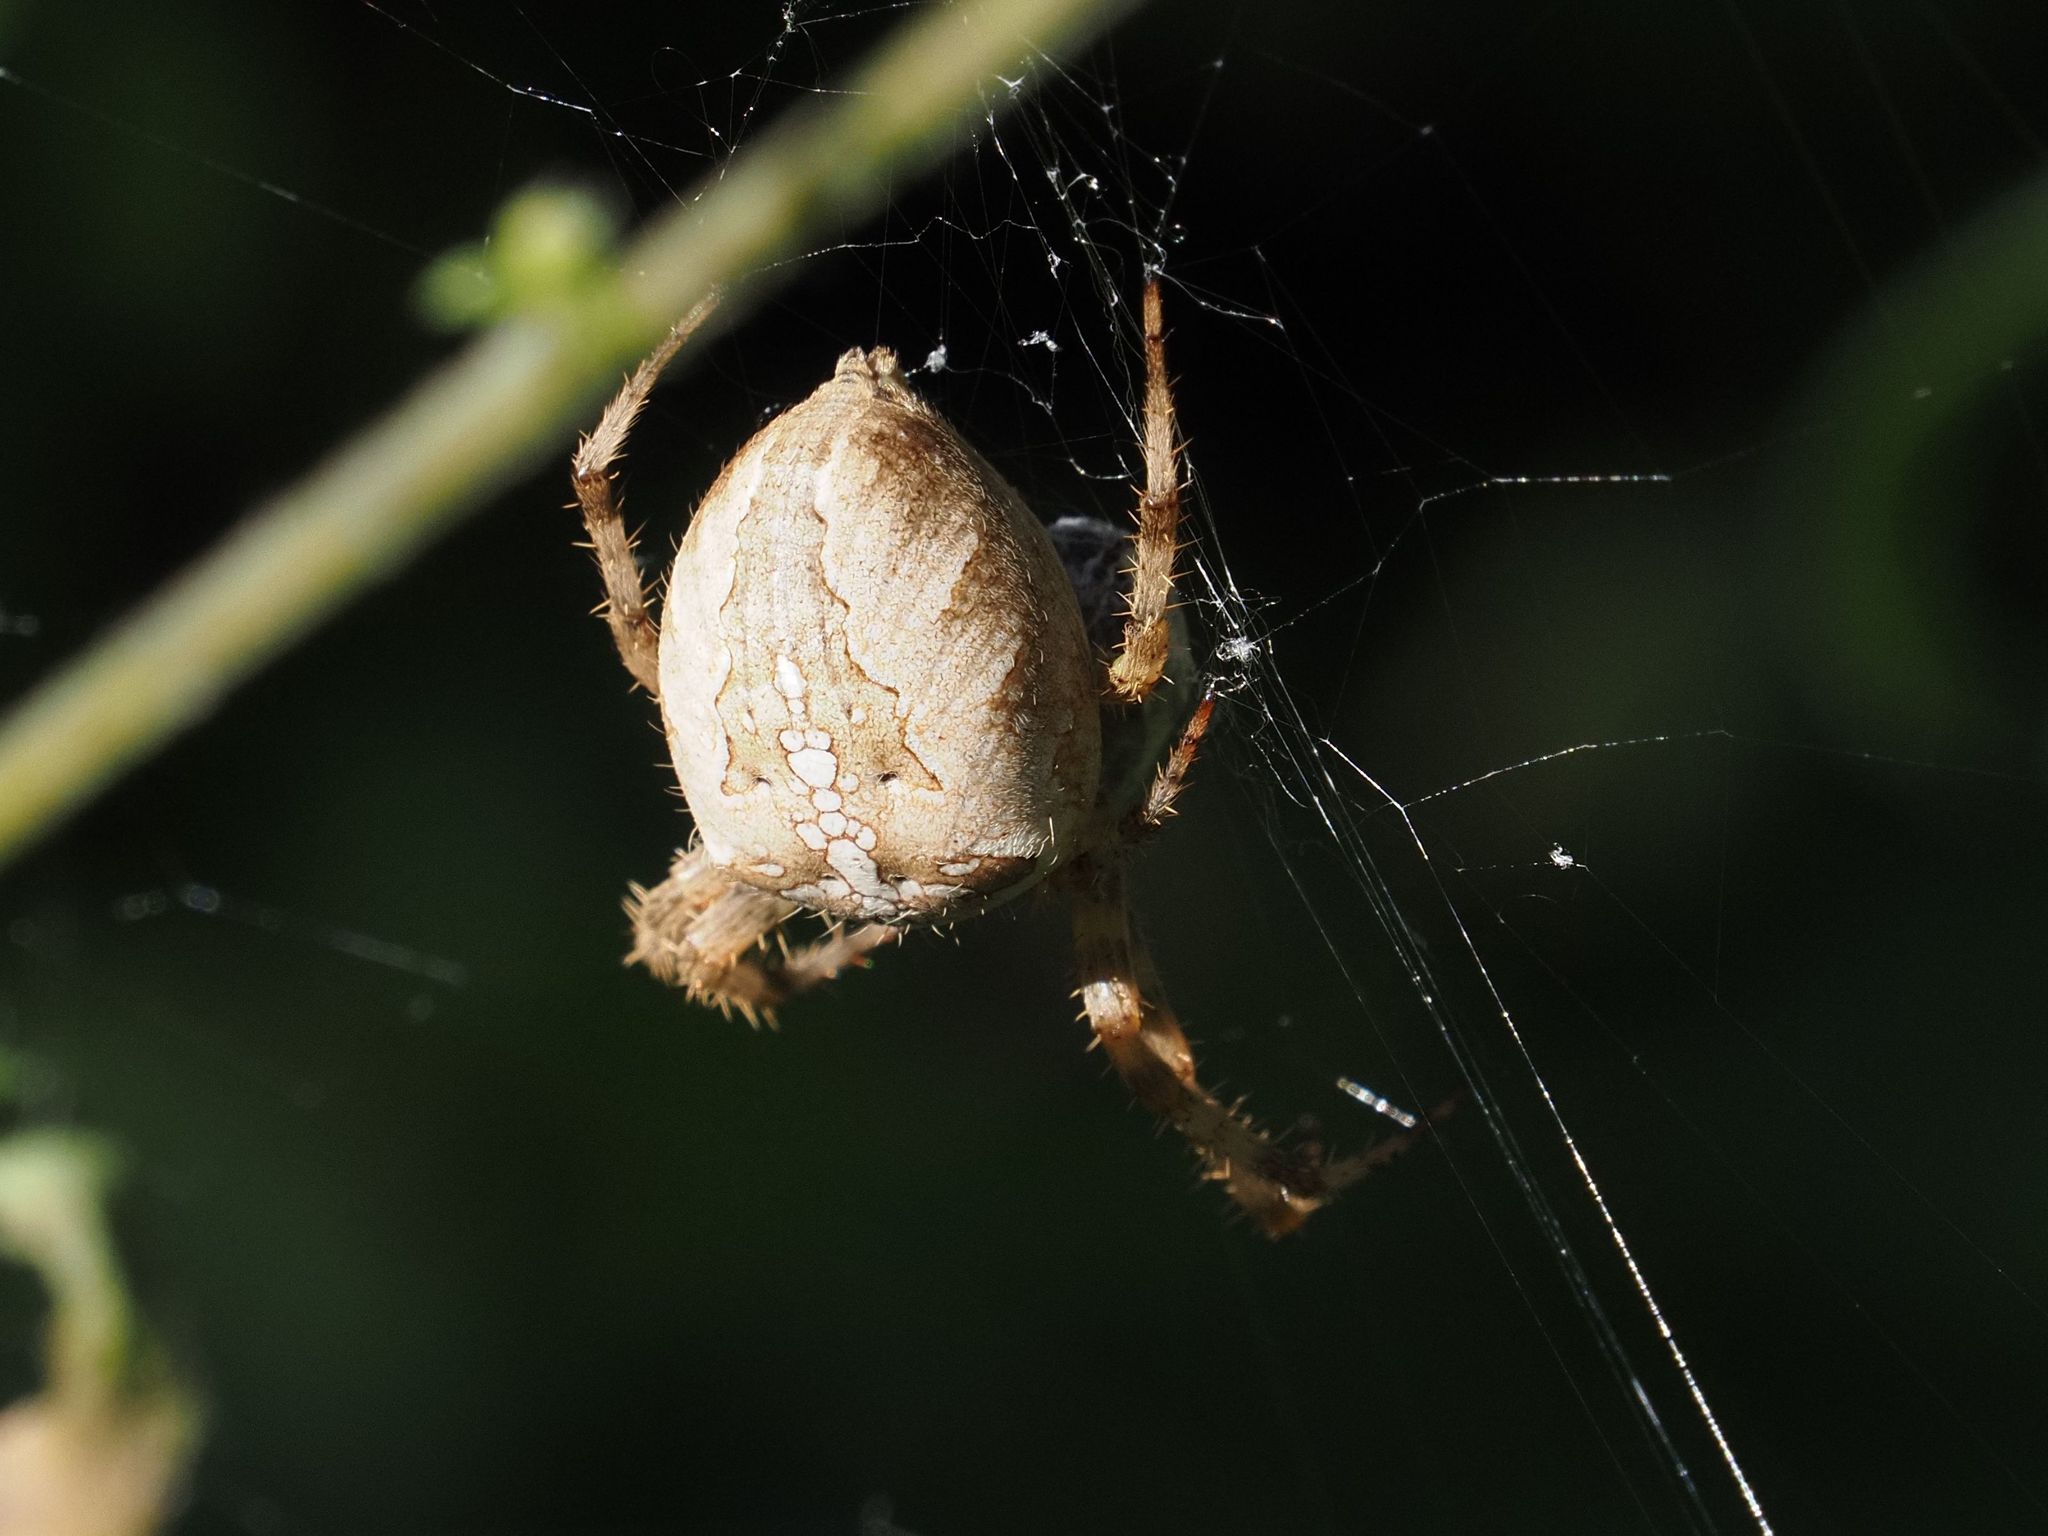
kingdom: Animalia
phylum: Arthropoda
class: Arachnida
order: Araneae
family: Araneidae
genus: Araneus
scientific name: Araneus diadematus
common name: Cross orbweaver
